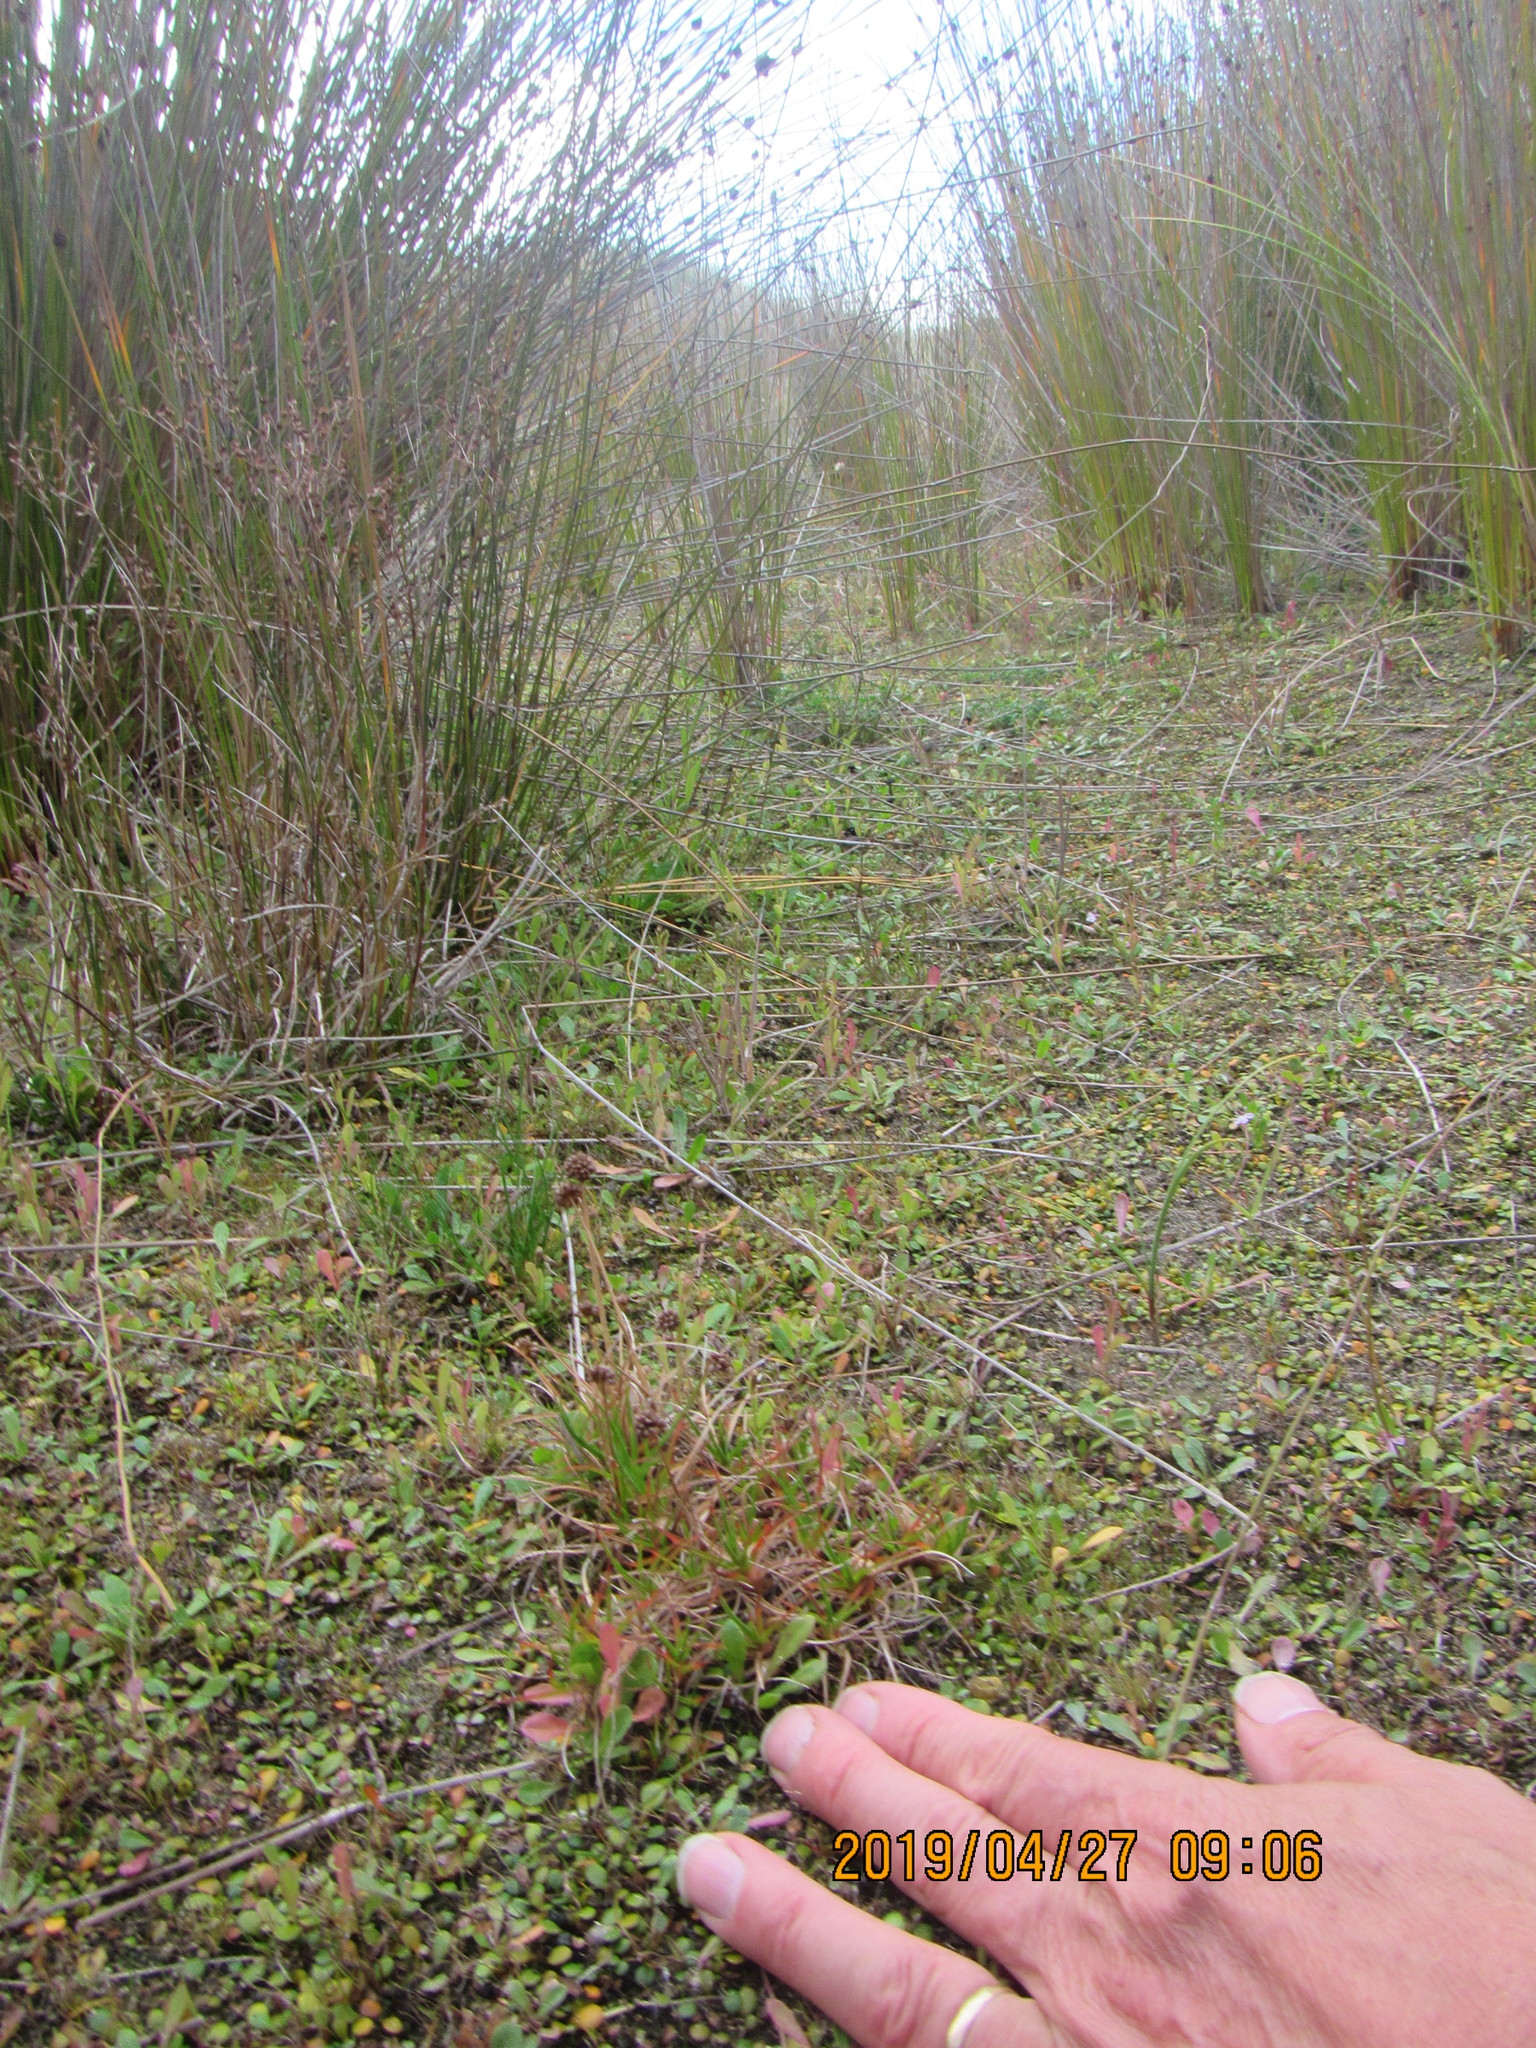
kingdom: Plantae
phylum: Tracheophyta
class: Liliopsida
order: Poales
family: Juncaceae
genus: Juncus
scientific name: Juncus caespiticius
